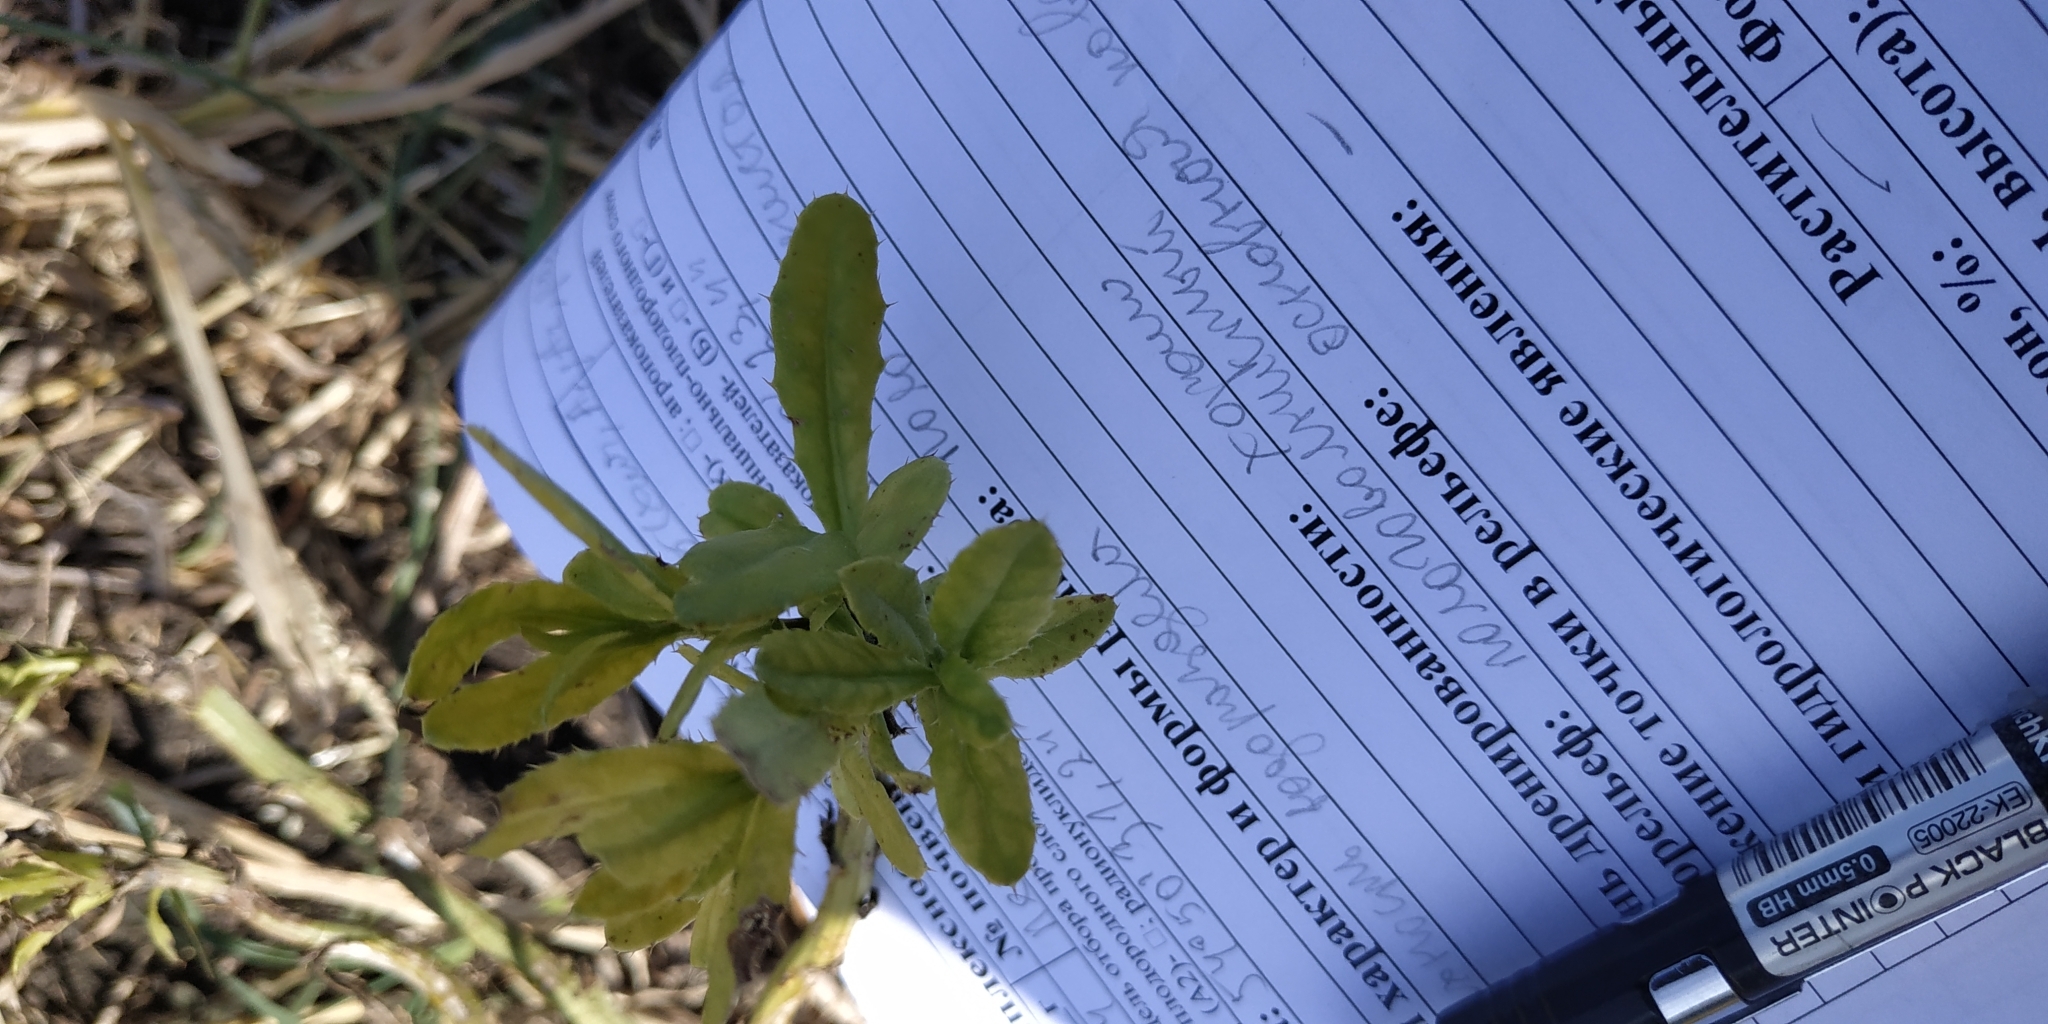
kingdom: Plantae
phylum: Tracheophyta
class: Magnoliopsida
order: Asterales
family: Asteraceae
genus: Cirsium
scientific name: Cirsium arvense
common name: Creeping thistle
